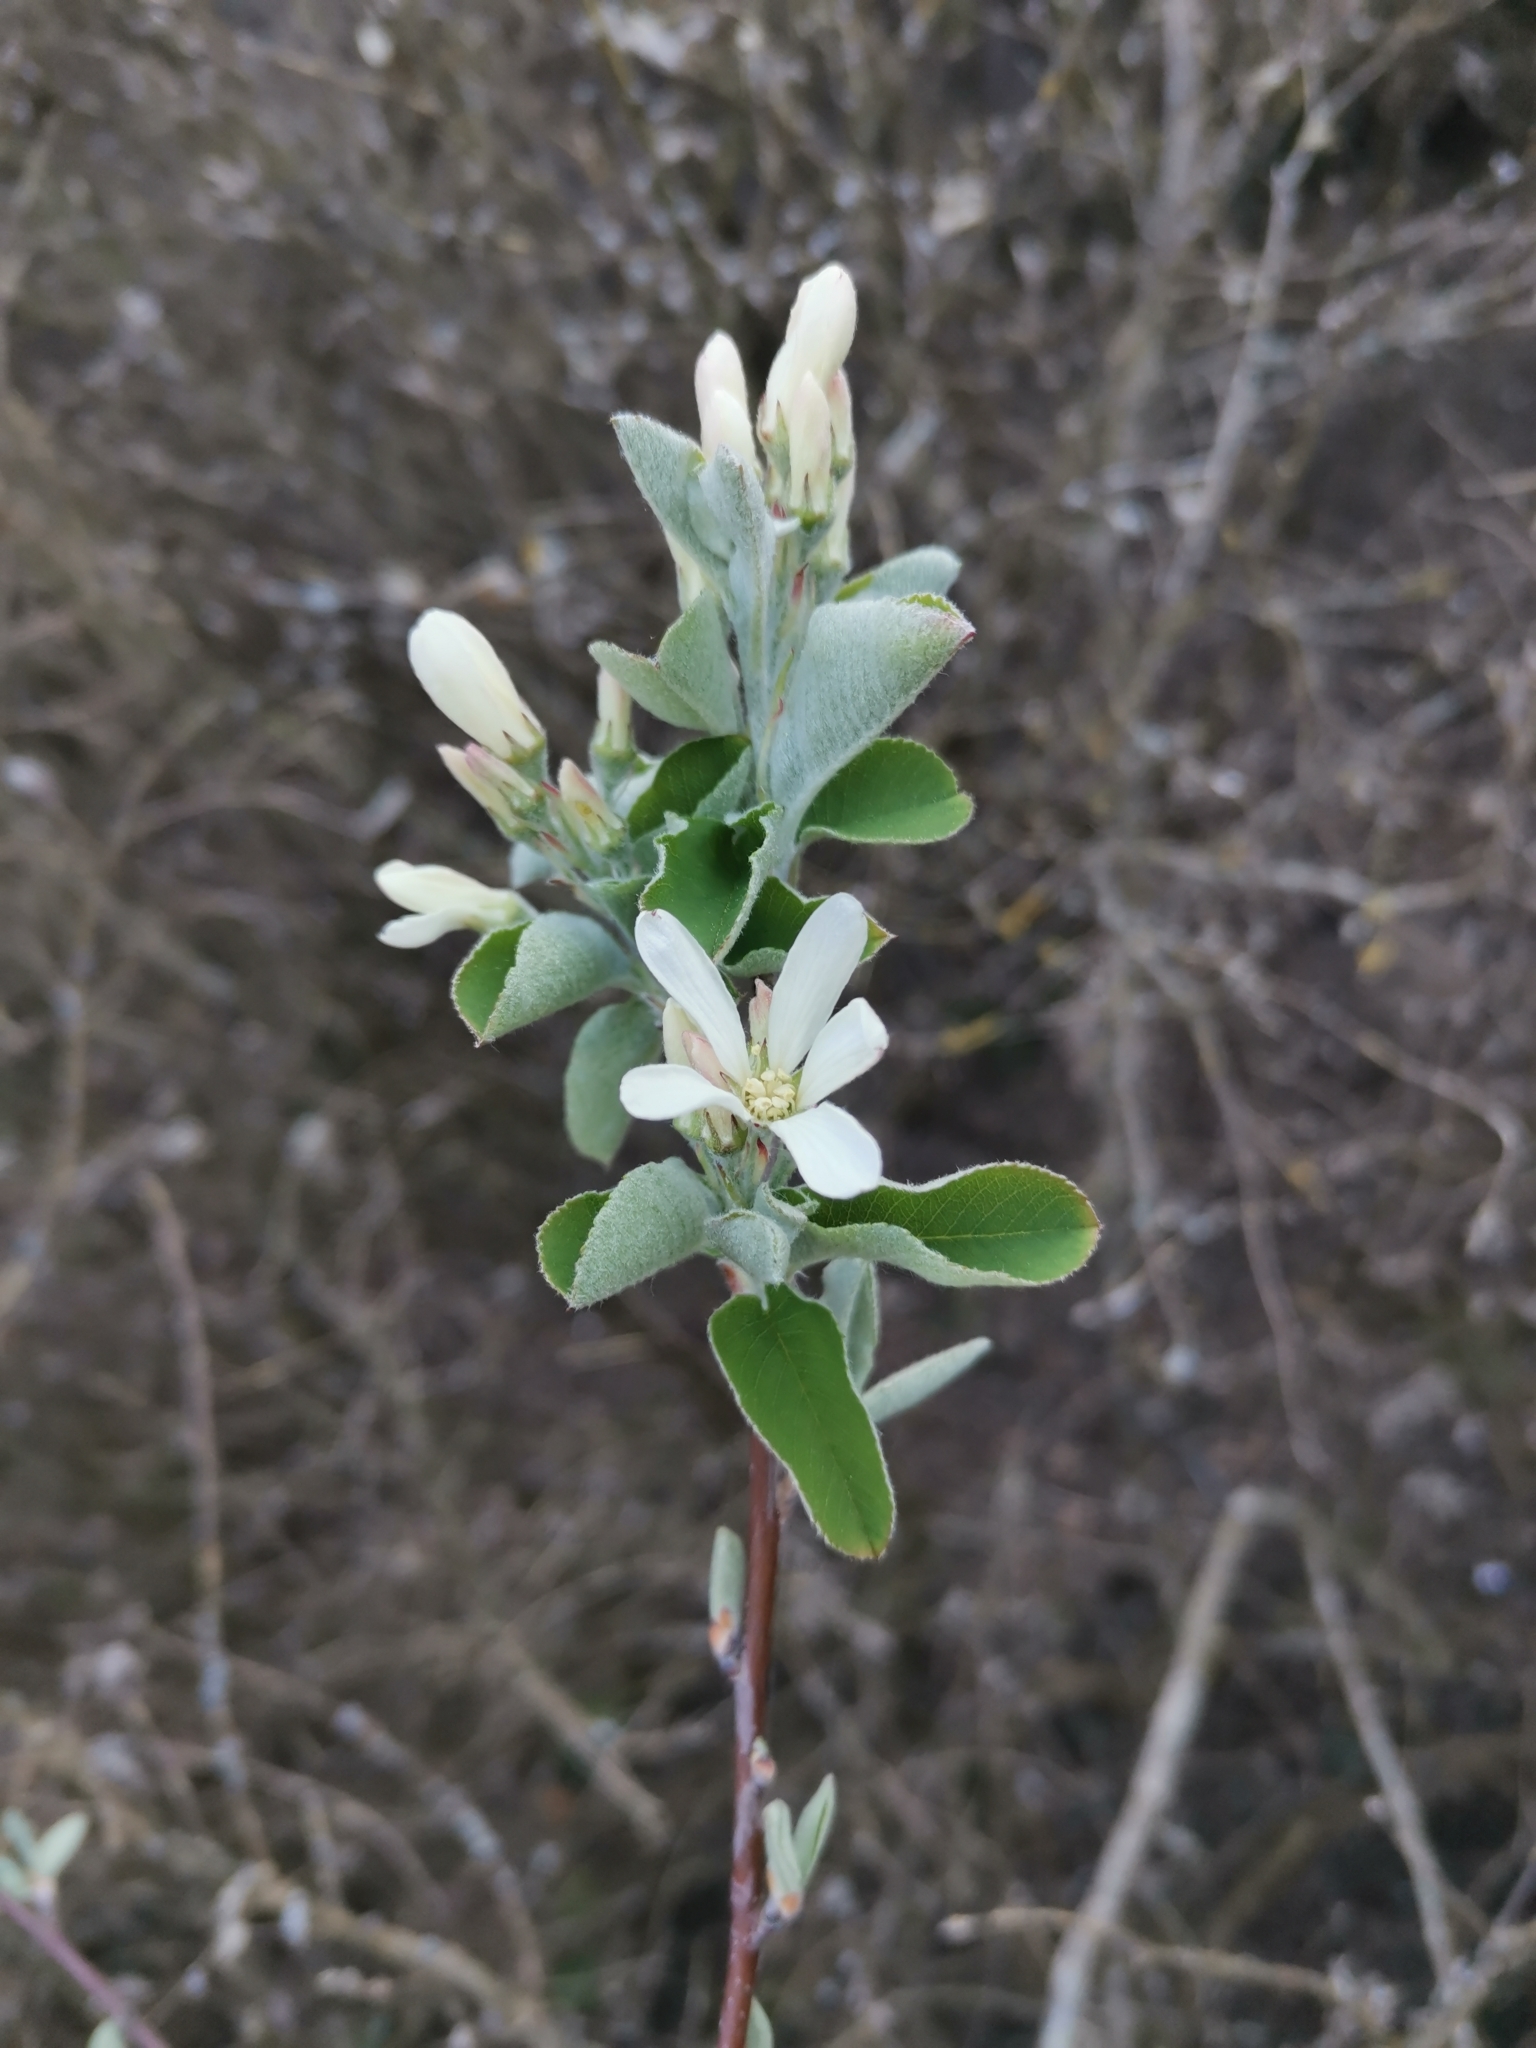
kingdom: Plantae
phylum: Tracheophyta
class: Magnoliopsida
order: Rosales
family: Rosaceae
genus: Amelanchier
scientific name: Amelanchier ovalis
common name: Serviceberry
